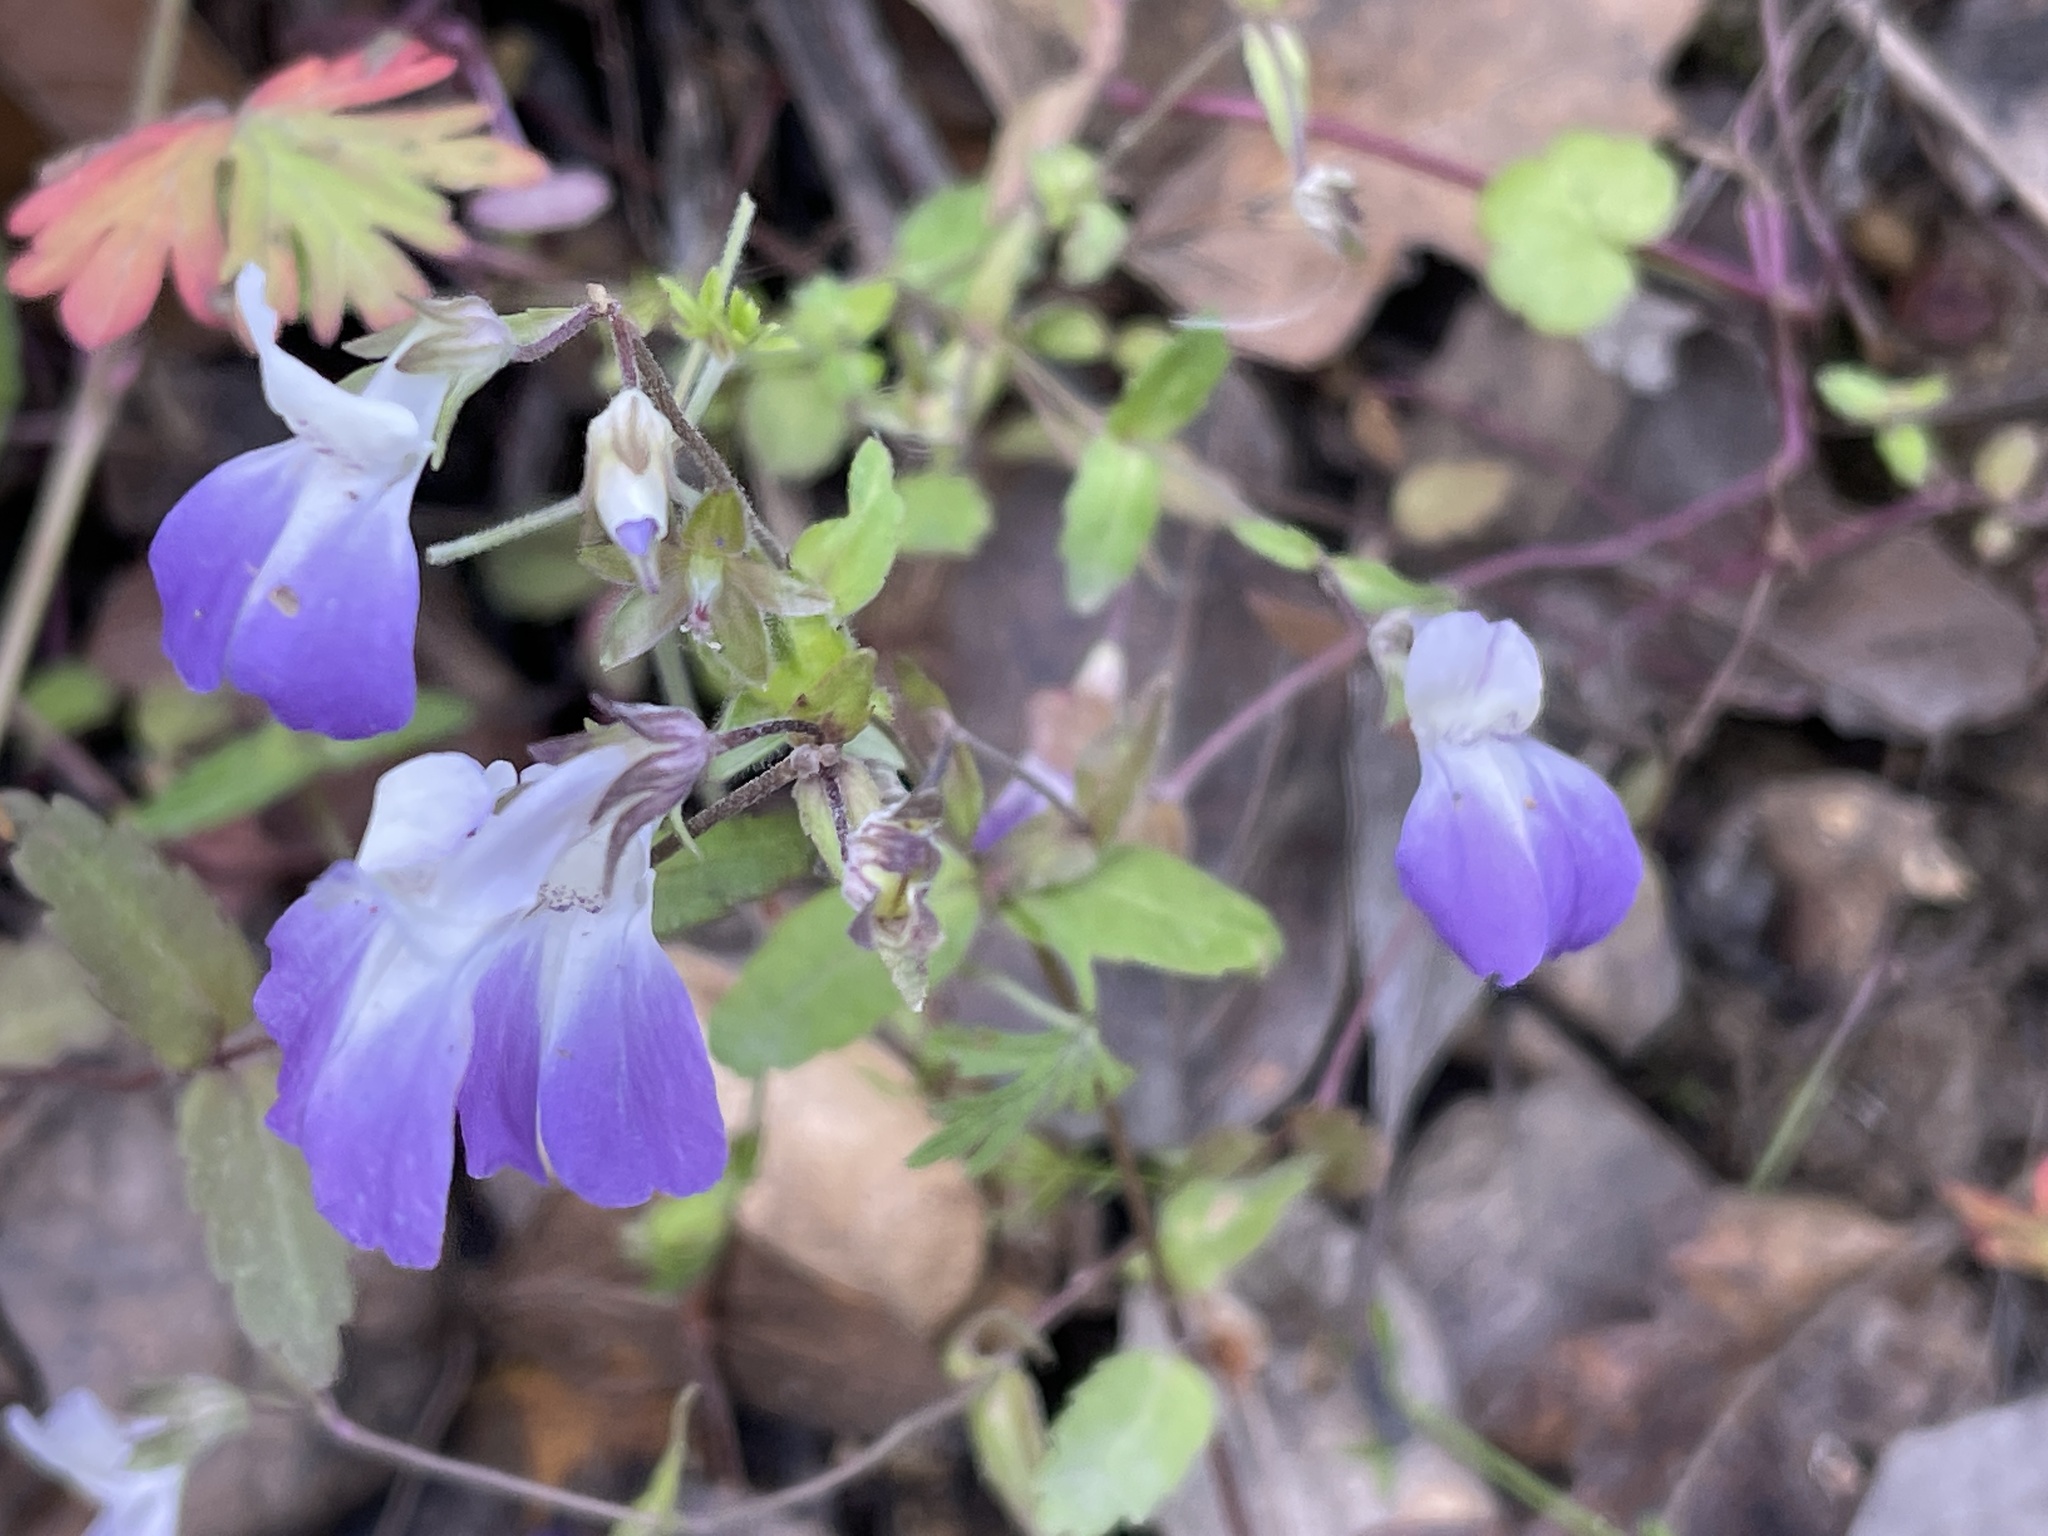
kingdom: Plantae
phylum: Tracheophyta
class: Magnoliopsida
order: Lamiales
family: Plantaginaceae
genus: Collinsia
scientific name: Collinsia multicolor
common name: San francisco collinsia
